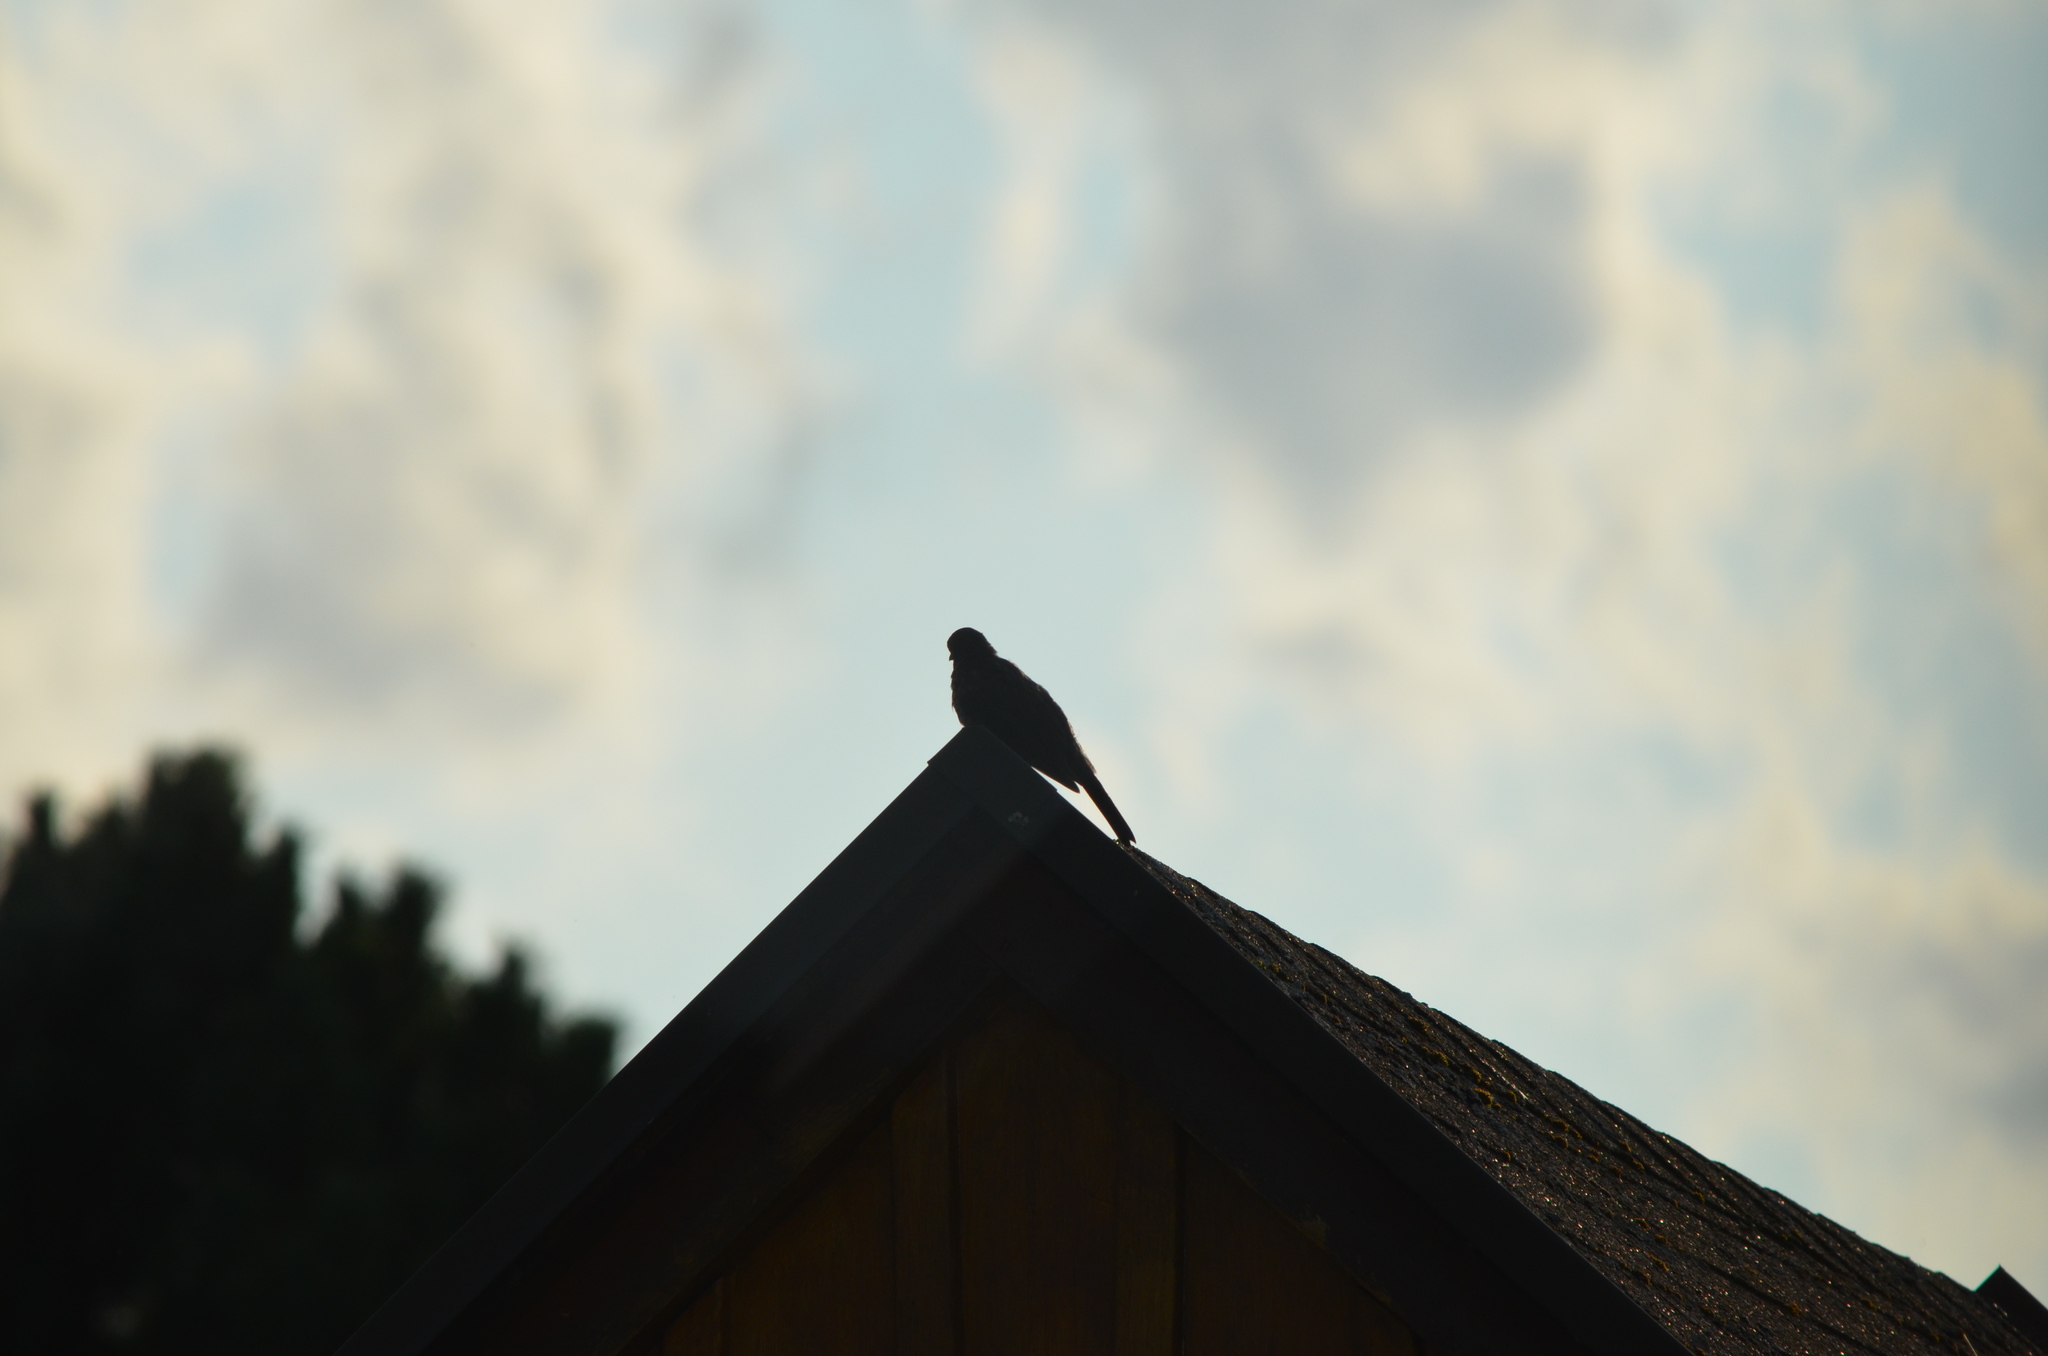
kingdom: Animalia
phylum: Chordata
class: Aves
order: Passeriformes
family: Turdidae
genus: Turdus
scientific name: Turdus merula
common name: Common blackbird
